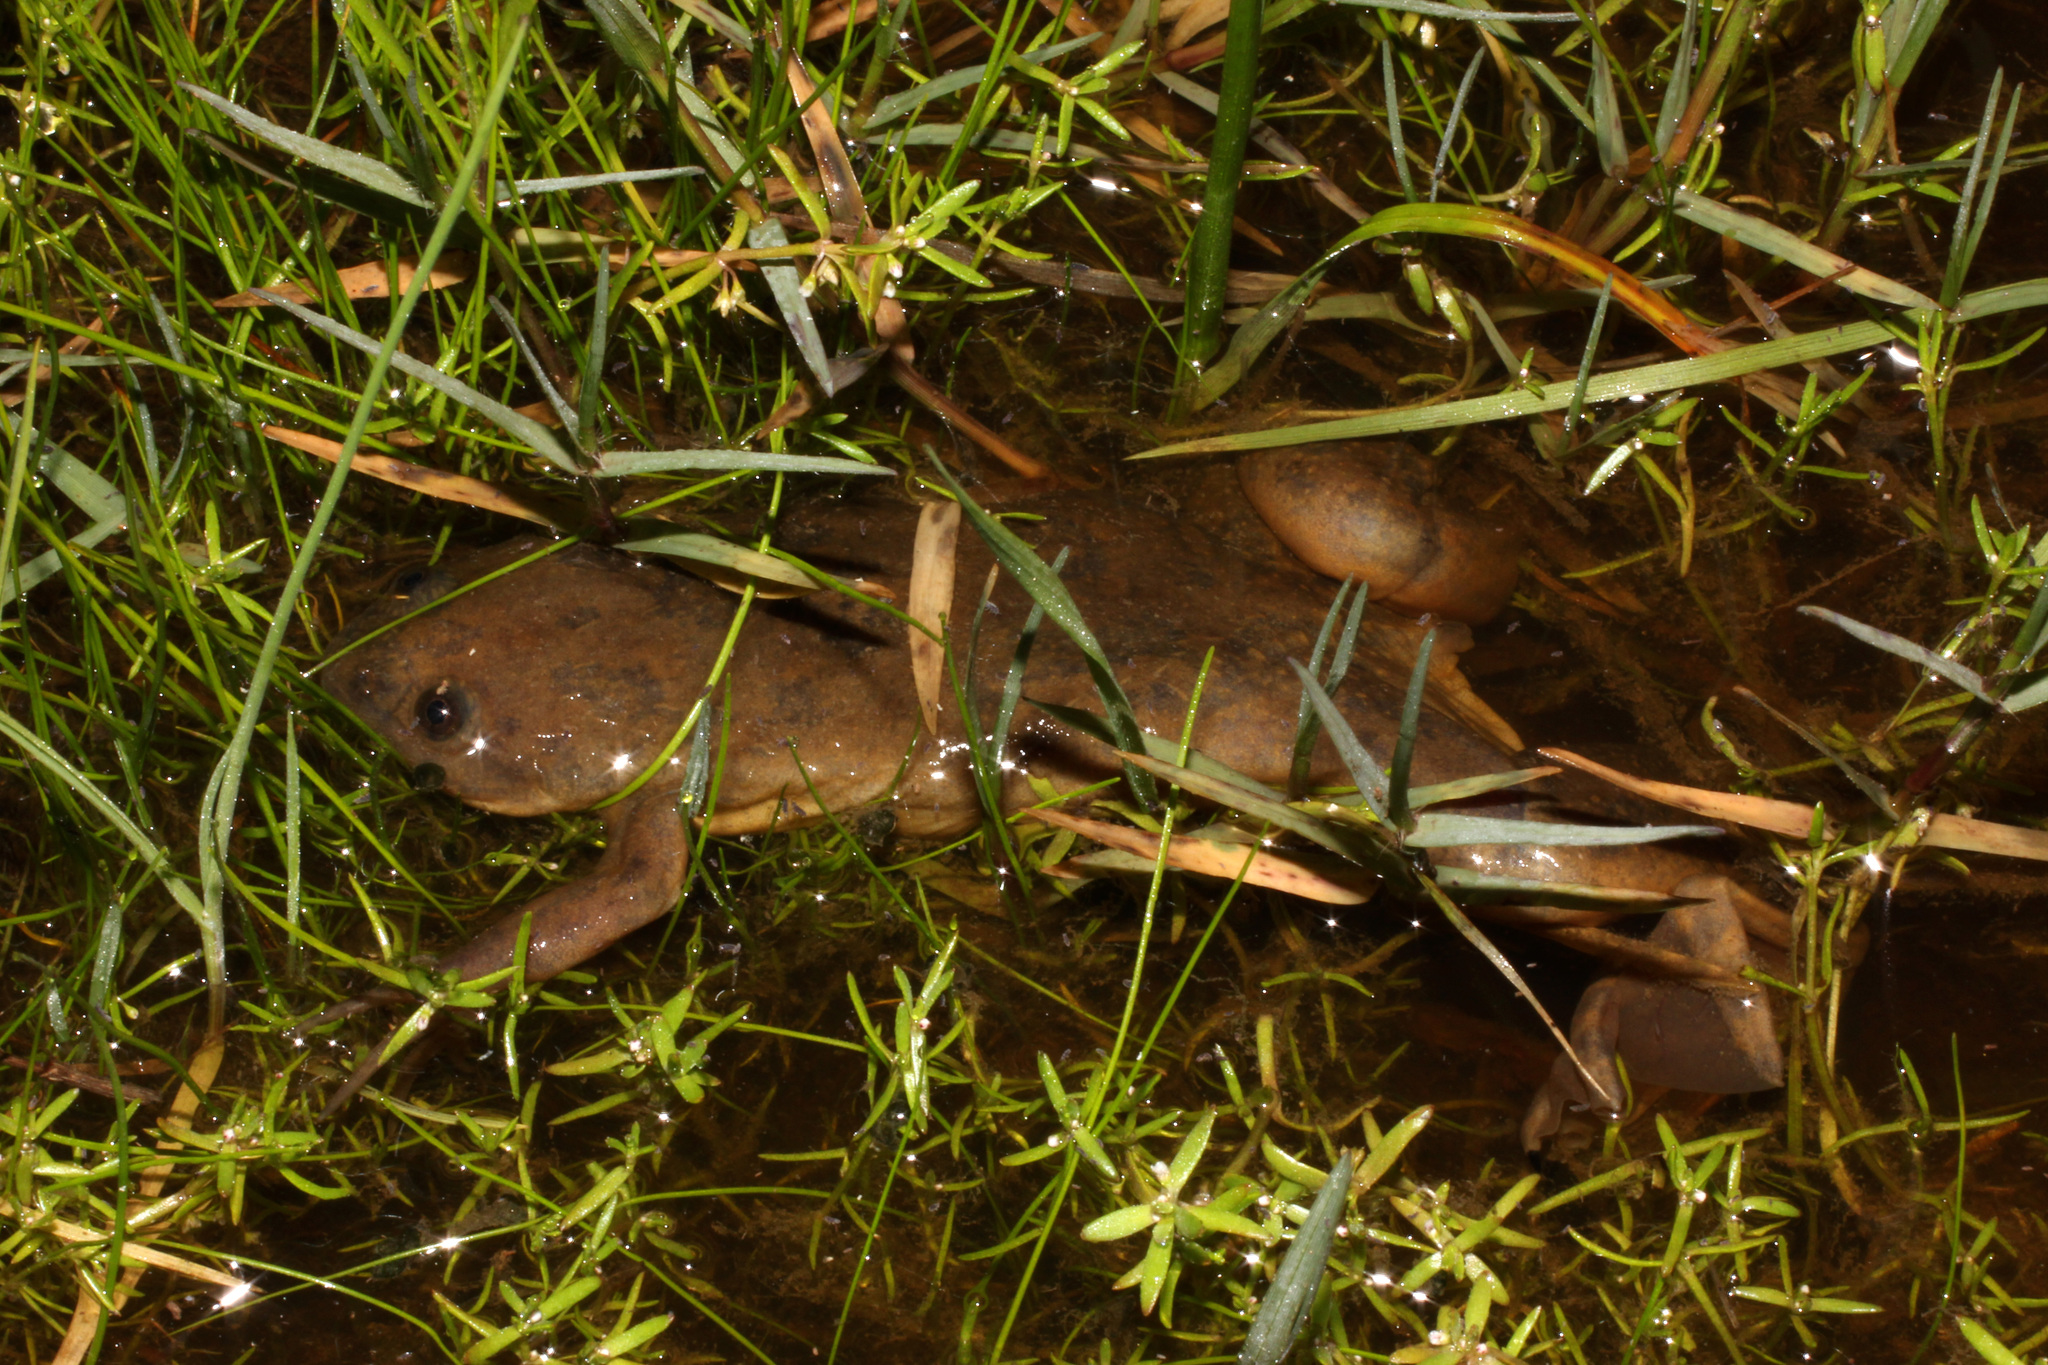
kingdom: Animalia
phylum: Chordata
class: Amphibia
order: Anura
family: Pipidae
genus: Xenopus
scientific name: Xenopus laevis
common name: African clawed frog
